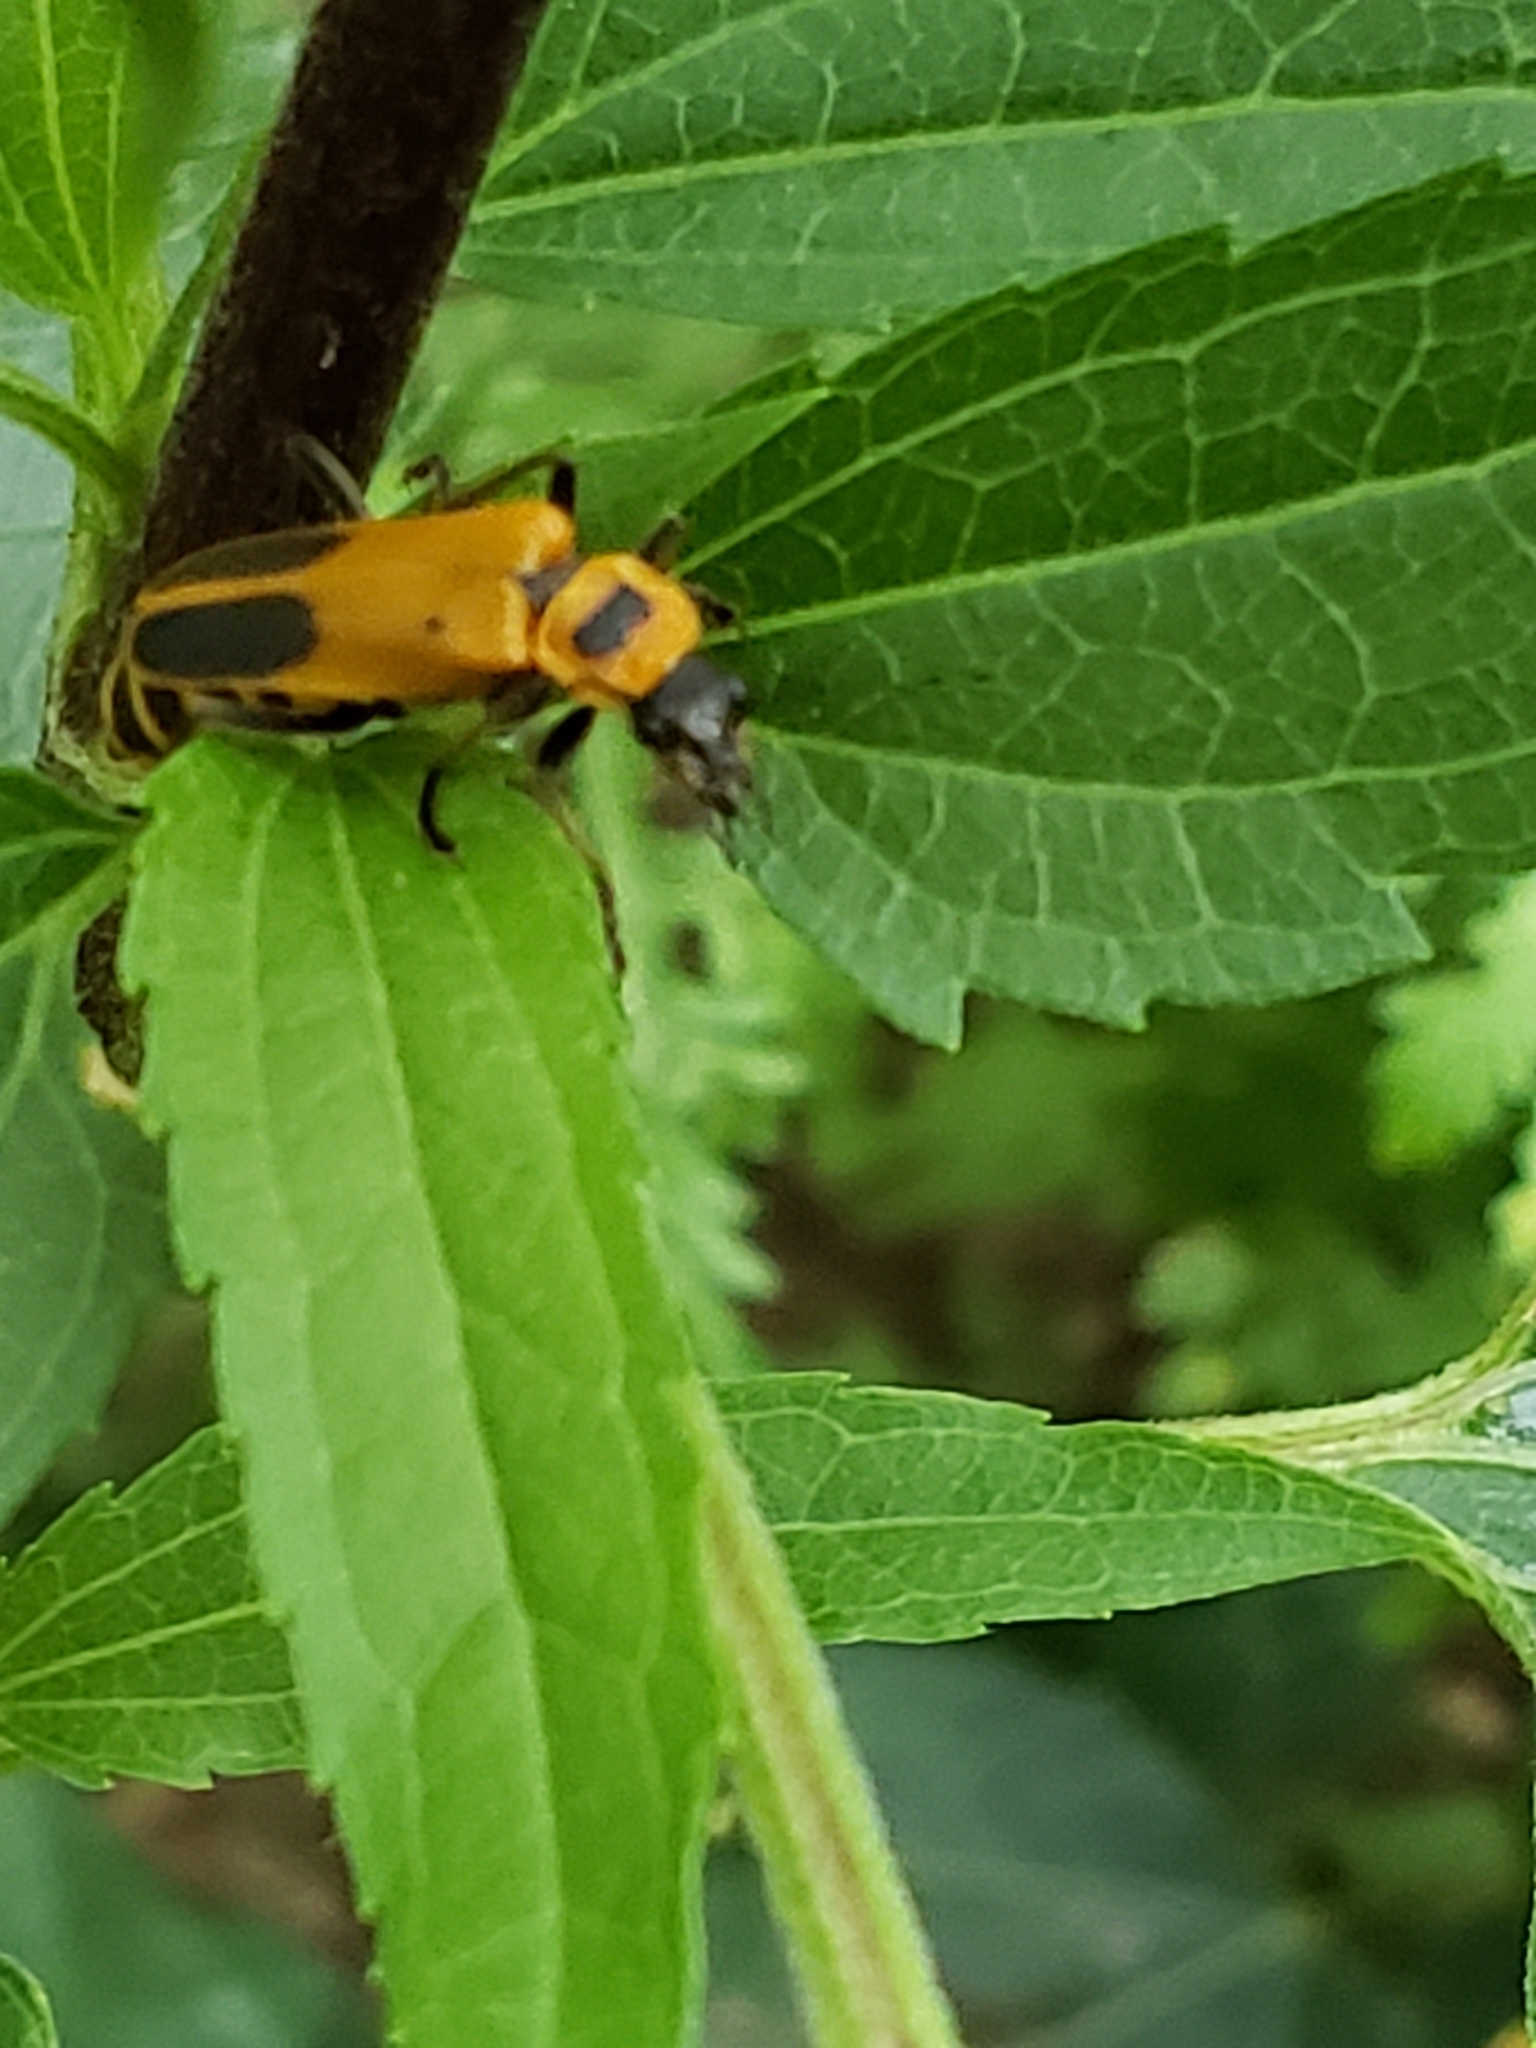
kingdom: Animalia
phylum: Arthropoda
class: Insecta
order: Coleoptera
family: Cantharidae
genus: Chauliognathus
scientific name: Chauliognathus pensylvanicus
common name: Goldenrod soldier beetle
